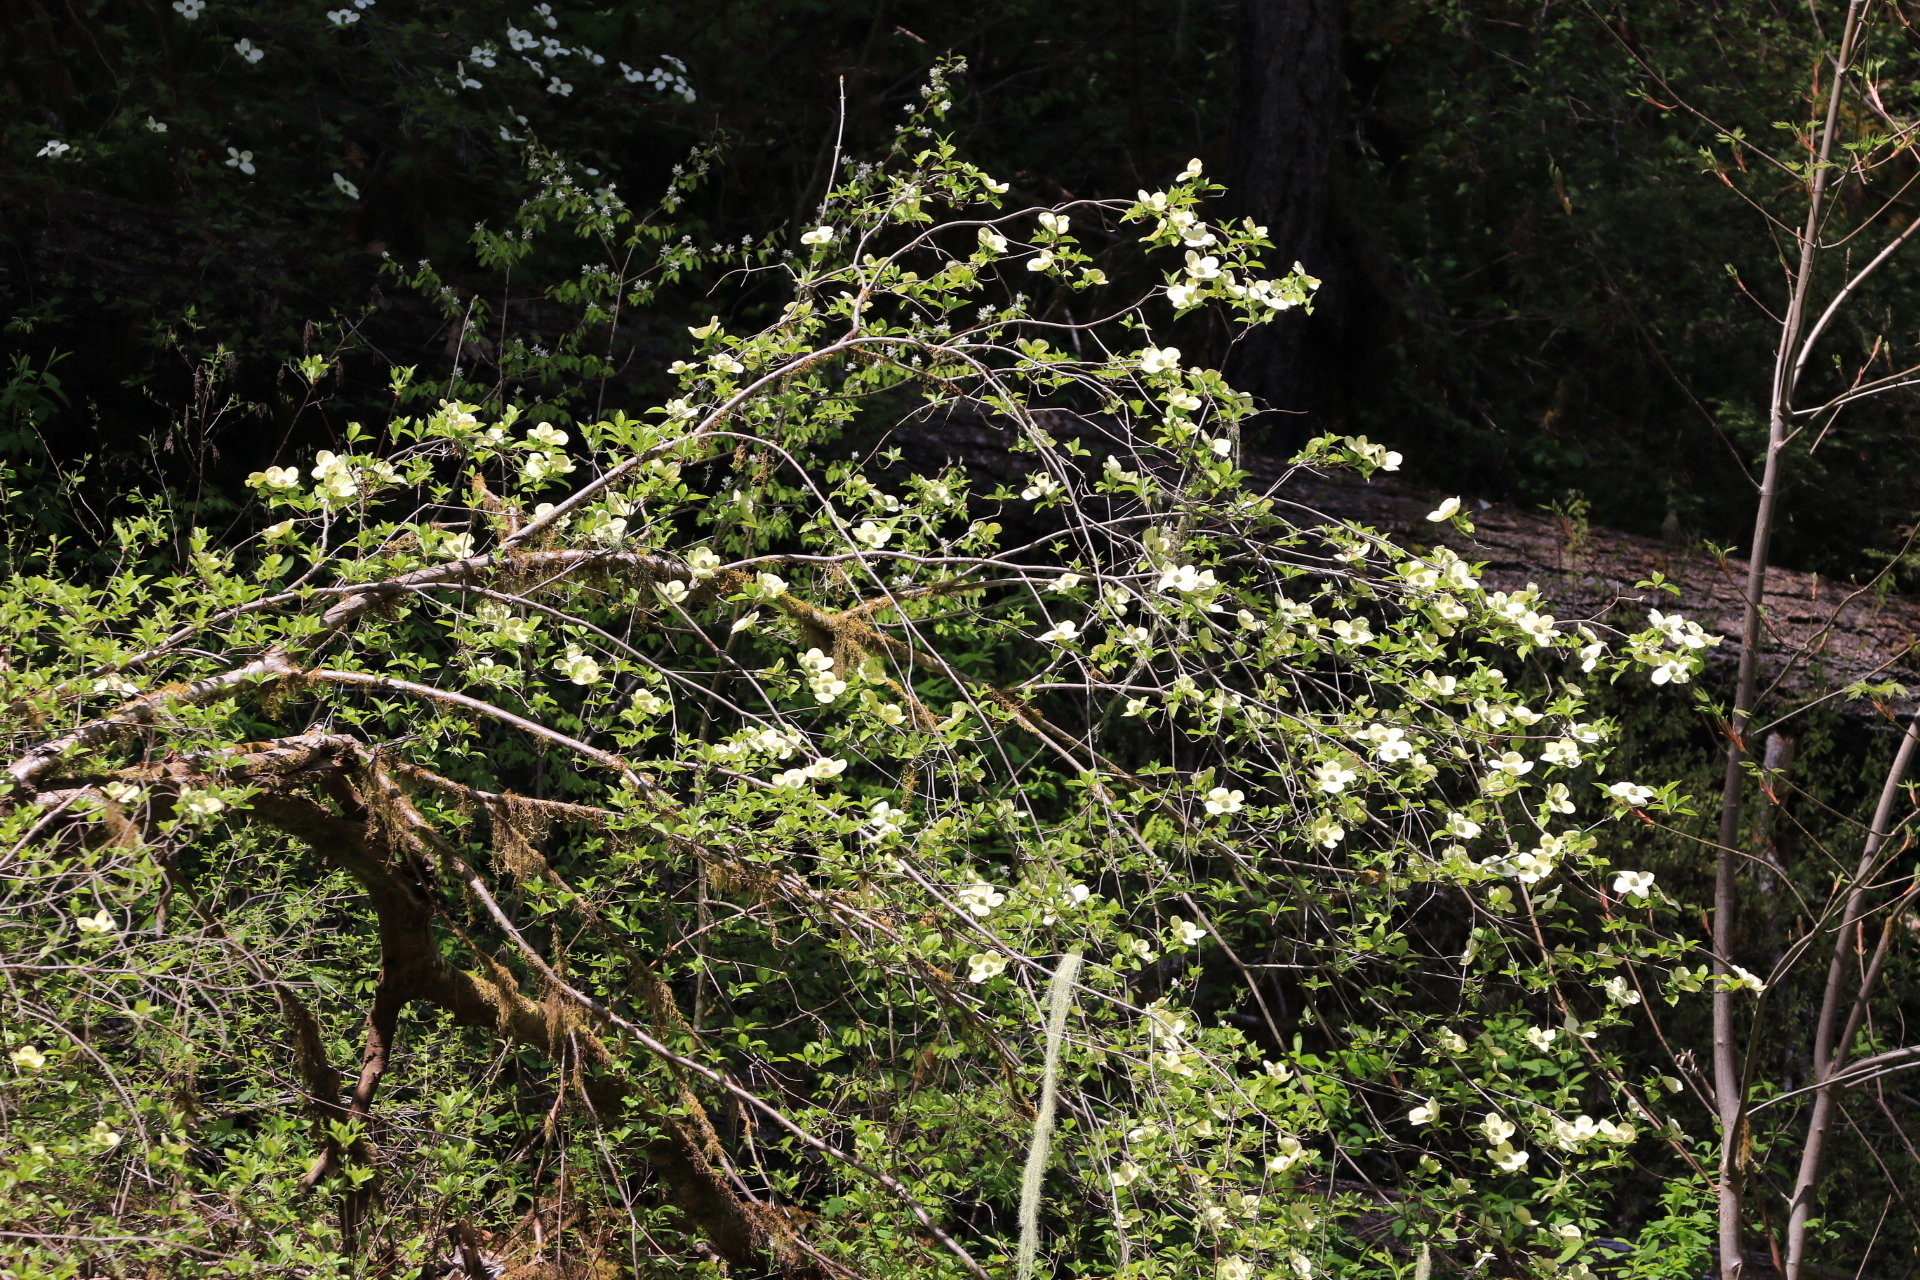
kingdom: Plantae
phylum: Tracheophyta
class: Magnoliopsida
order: Cornales
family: Cornaceae
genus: Cornus
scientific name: Cornus nuttallii
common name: Pacific dogwood
